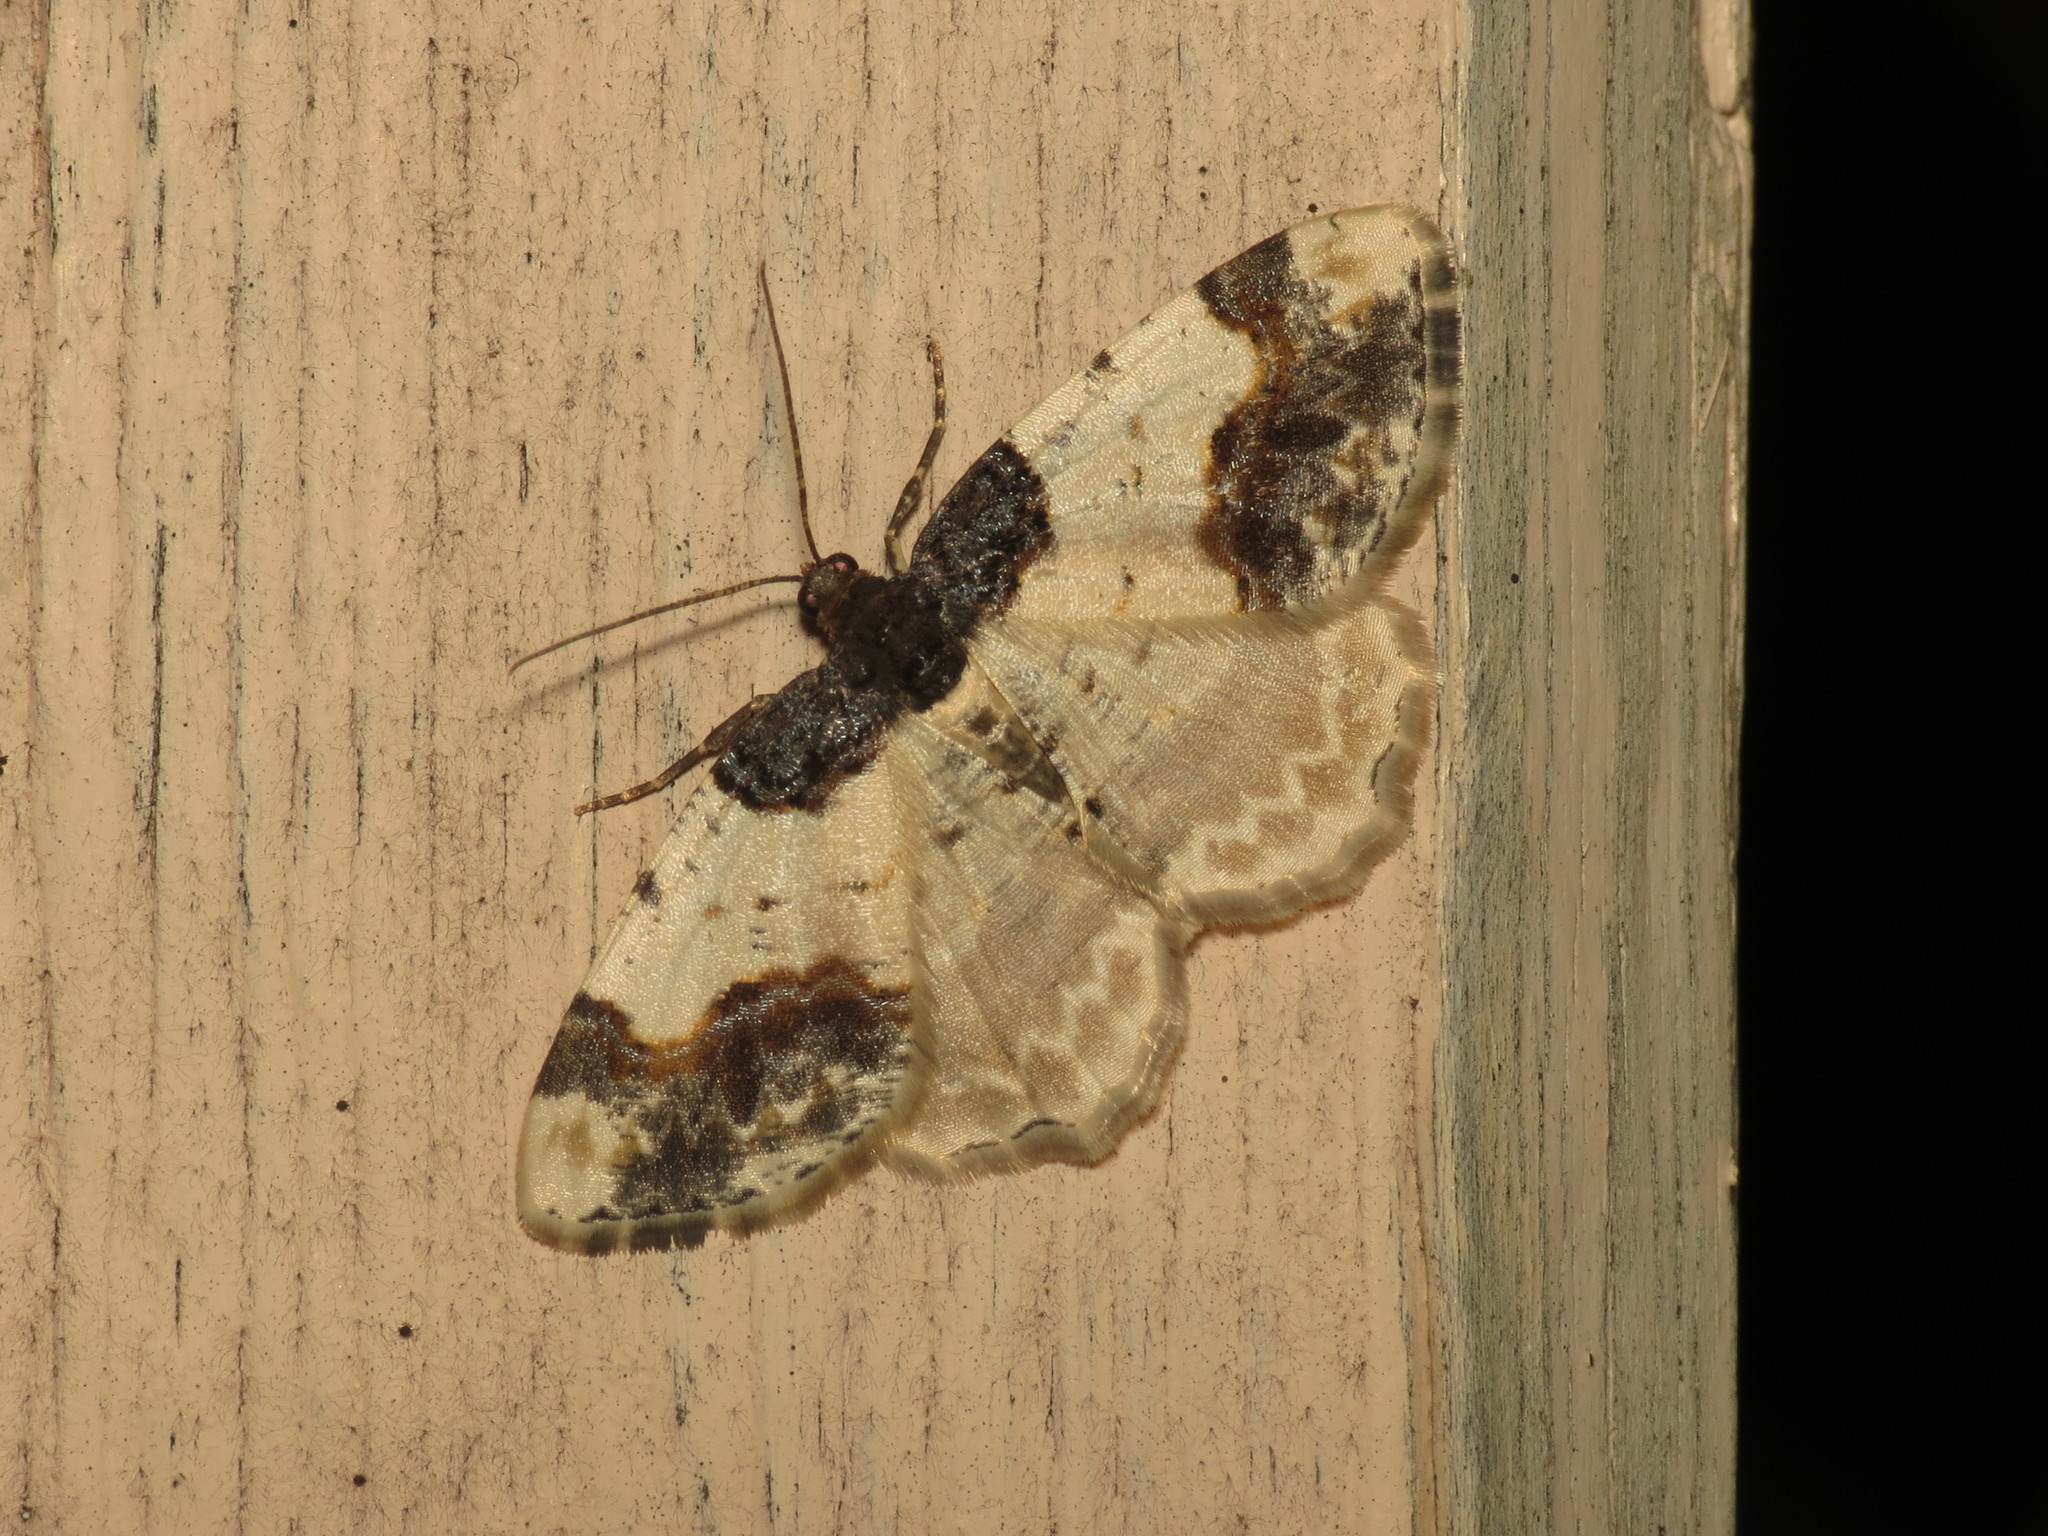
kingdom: Animalia
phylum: Arthropoda
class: Insecta
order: Lepidoptera
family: Geometridae
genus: Ligdia
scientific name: Ligdia adustata
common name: Scorched carpet
